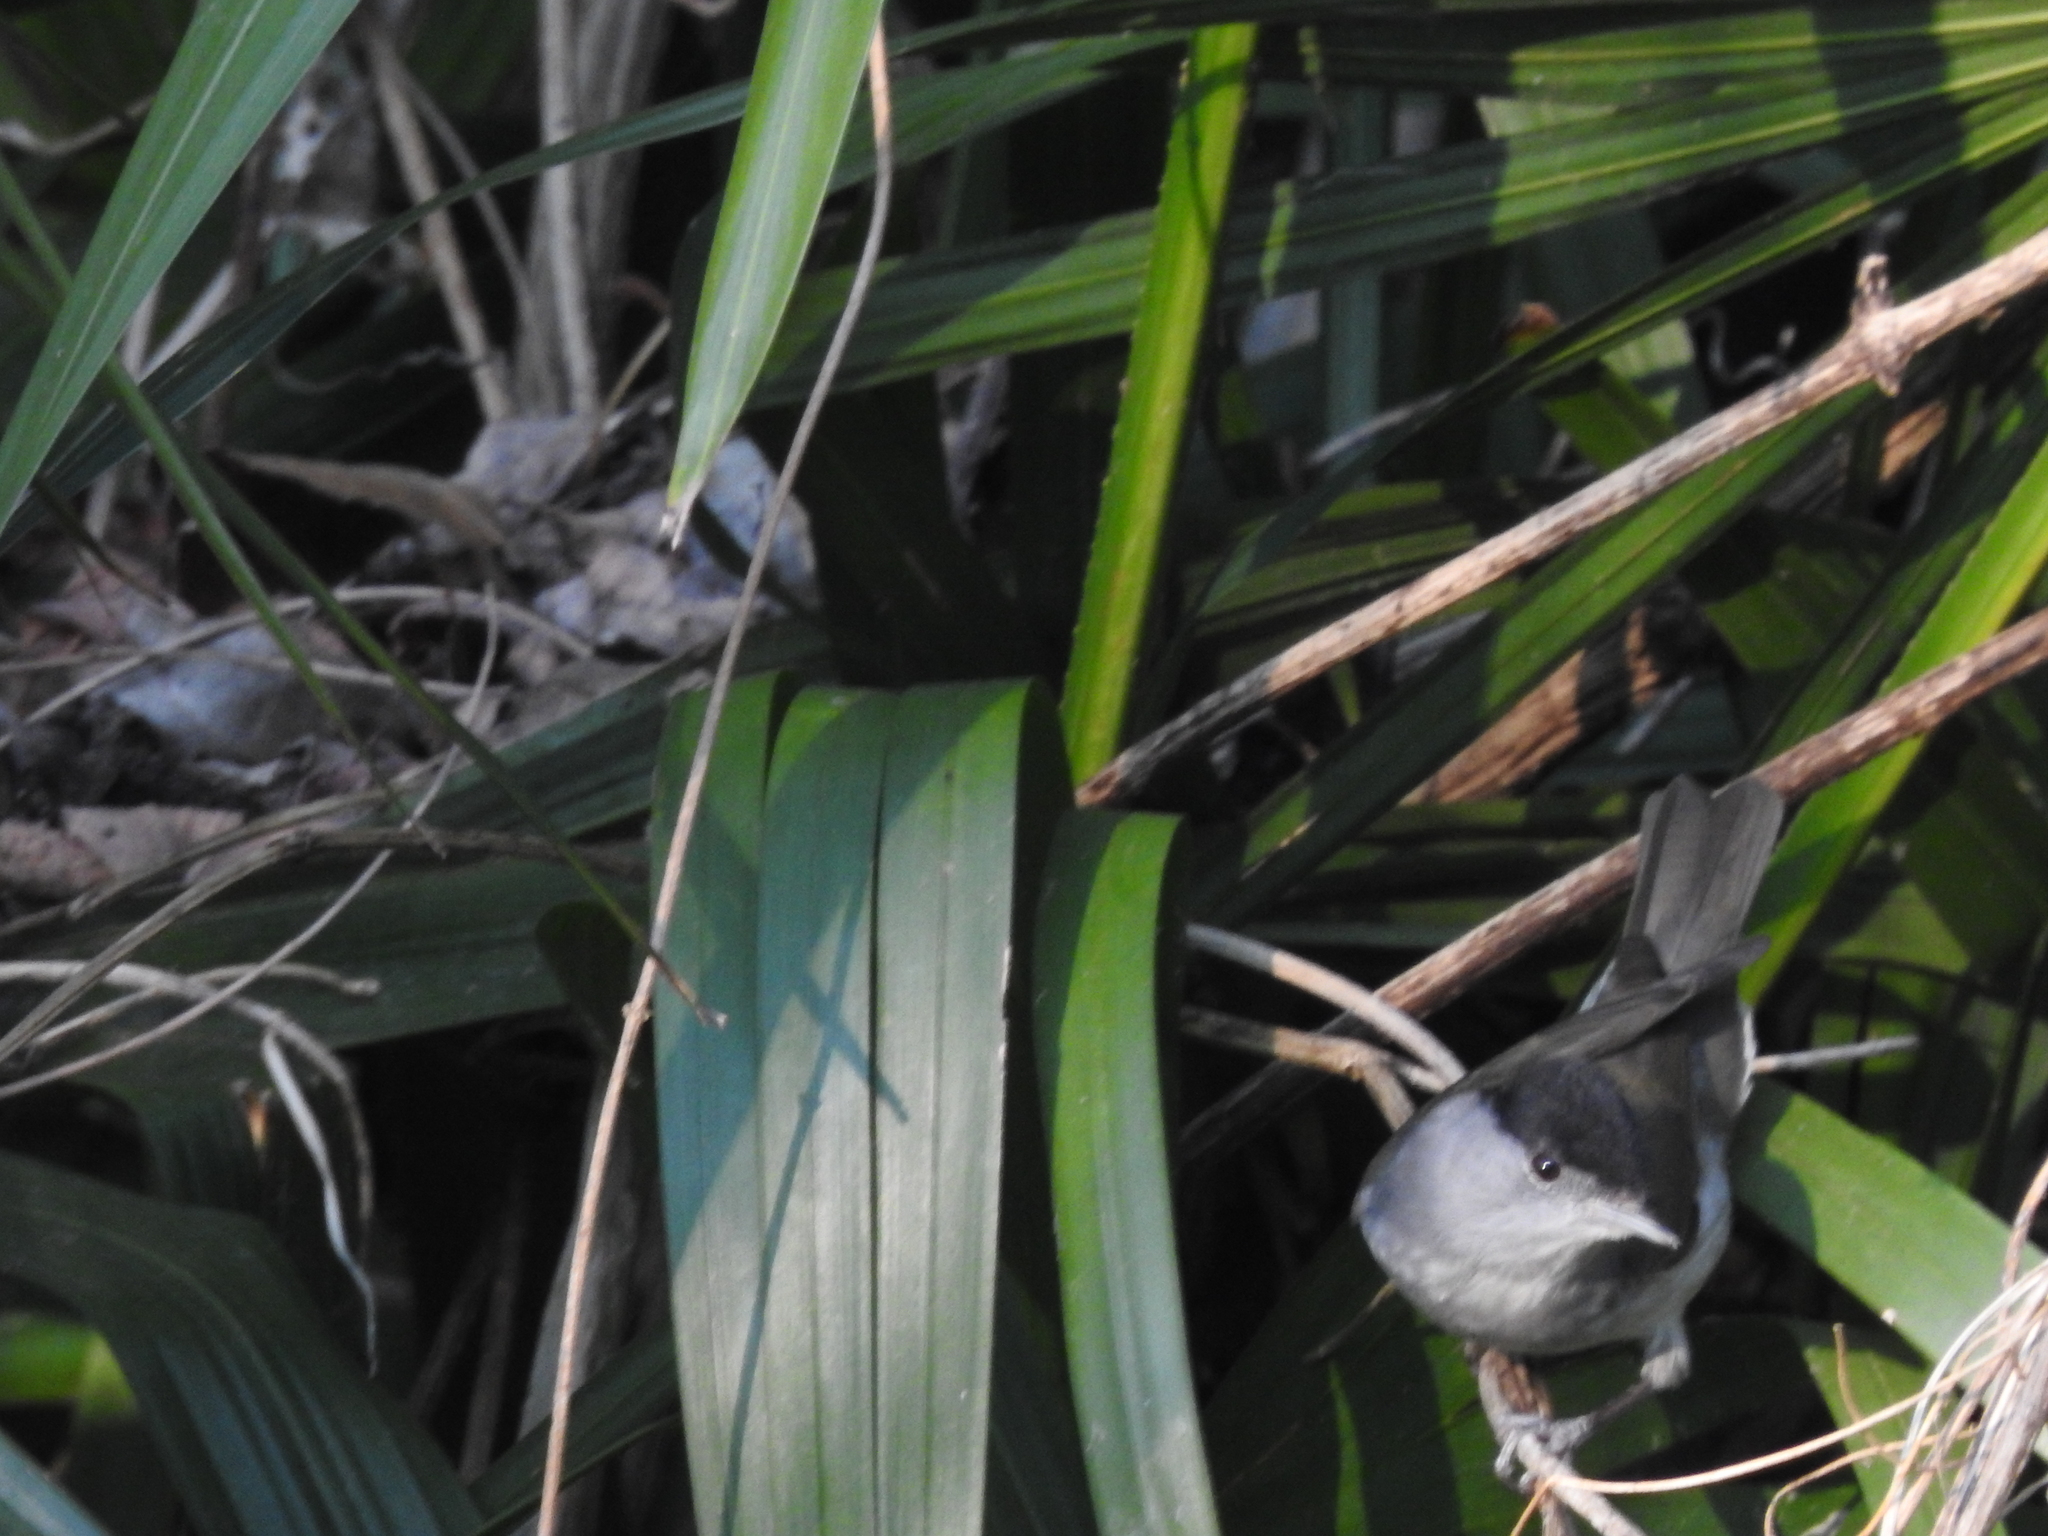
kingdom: Animalia
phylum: Chordata
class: Aves
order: Passeriformes
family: Sylviidae
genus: Sylvia
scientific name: Sylvia atricapilla
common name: Eurasian blackcap
